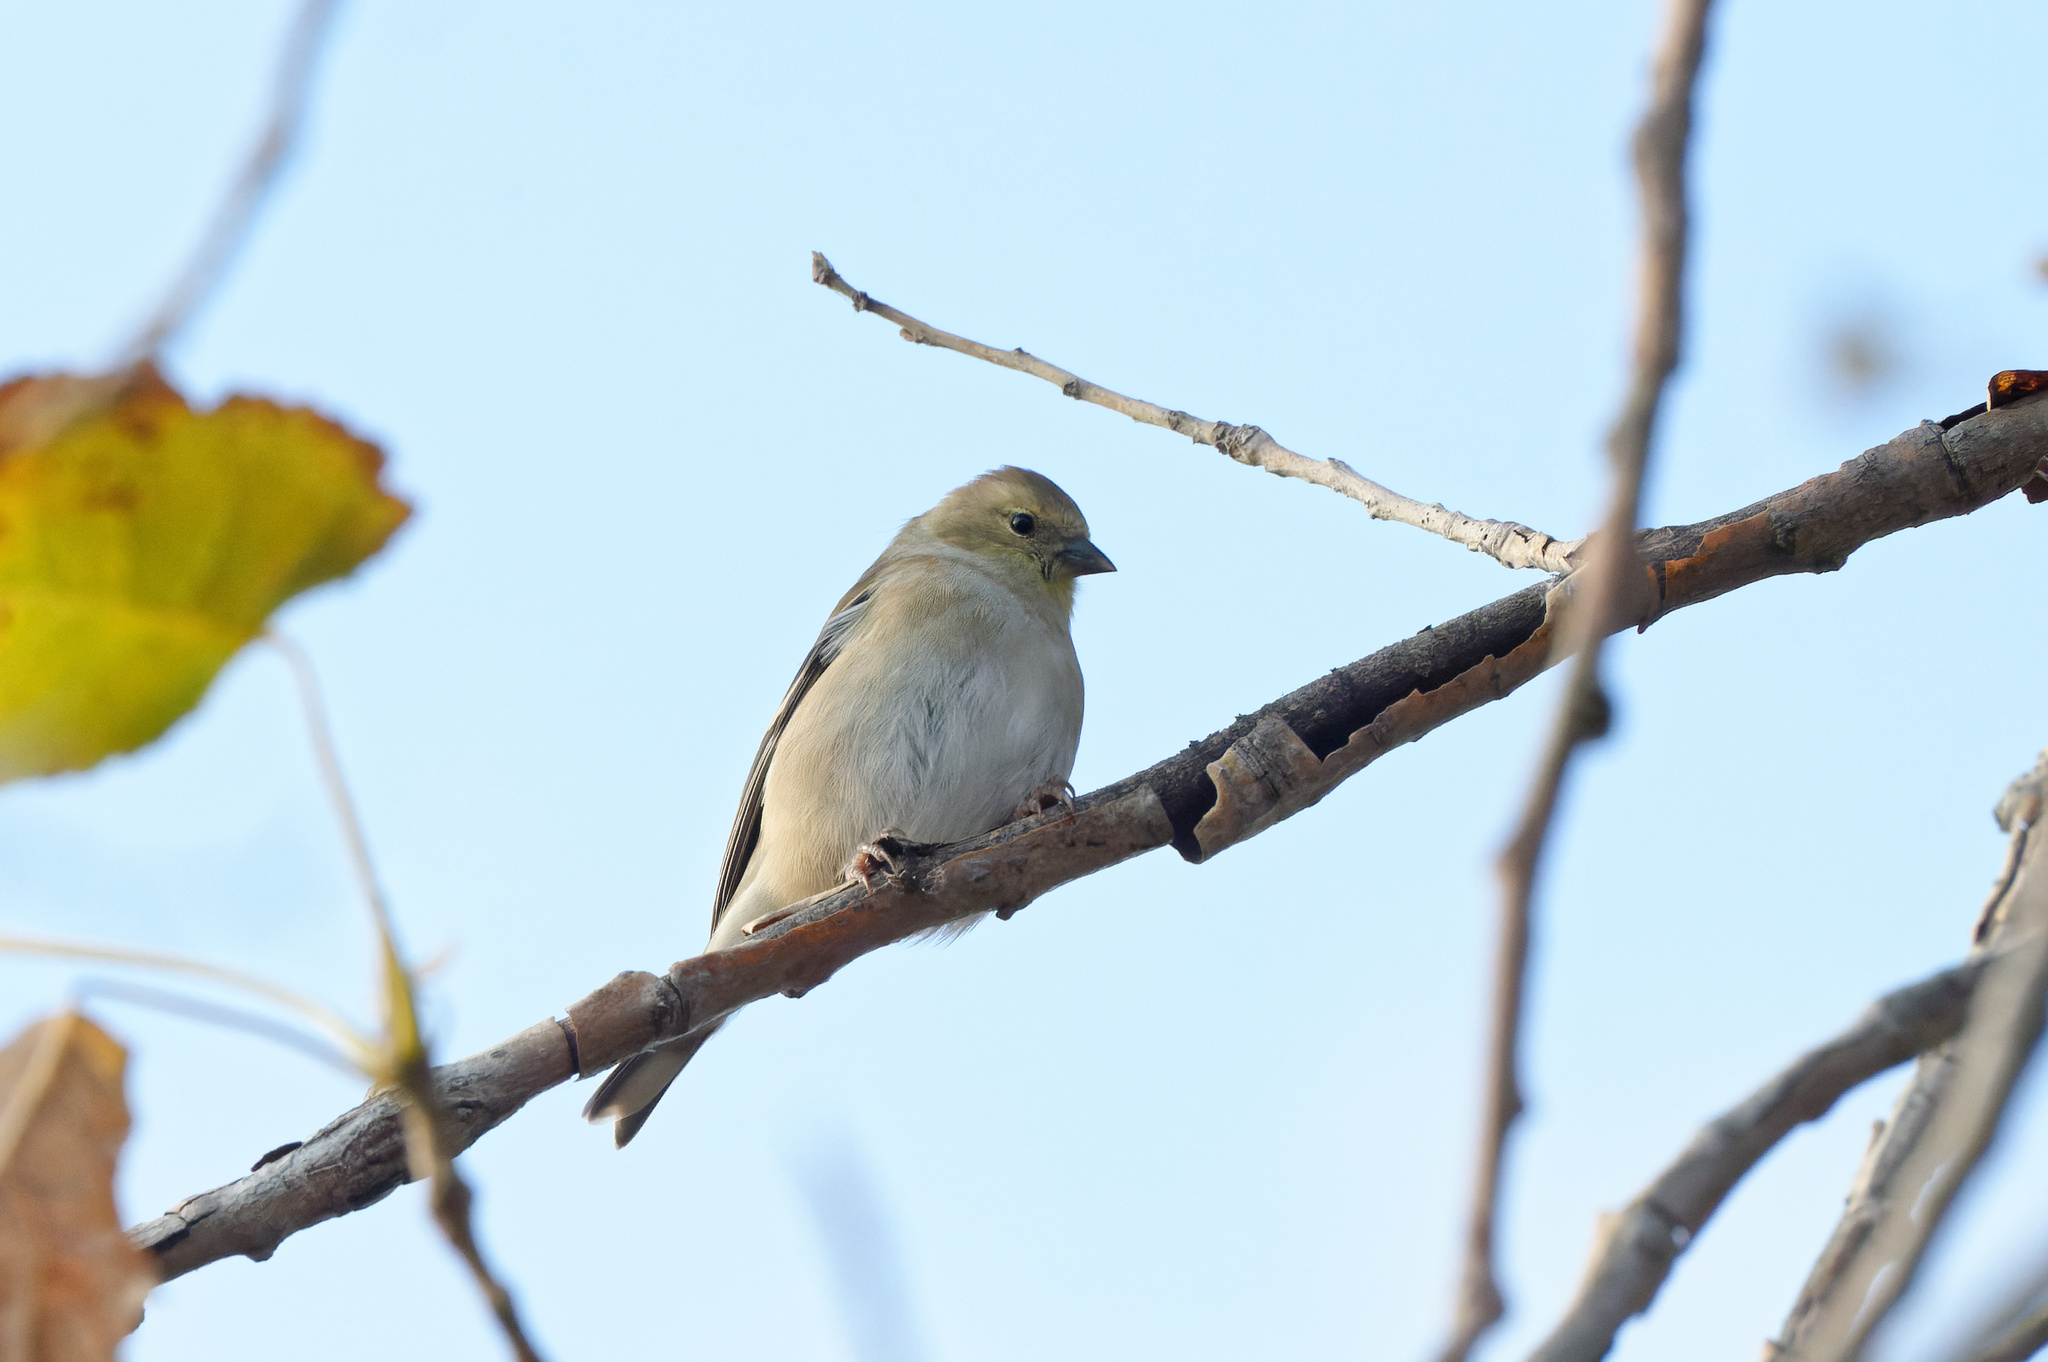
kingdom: Animalia
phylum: Chordata
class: Aves
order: Passeriformes
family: Fringillidae
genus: Spinus
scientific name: Spinus tristis
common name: American goldfinch
